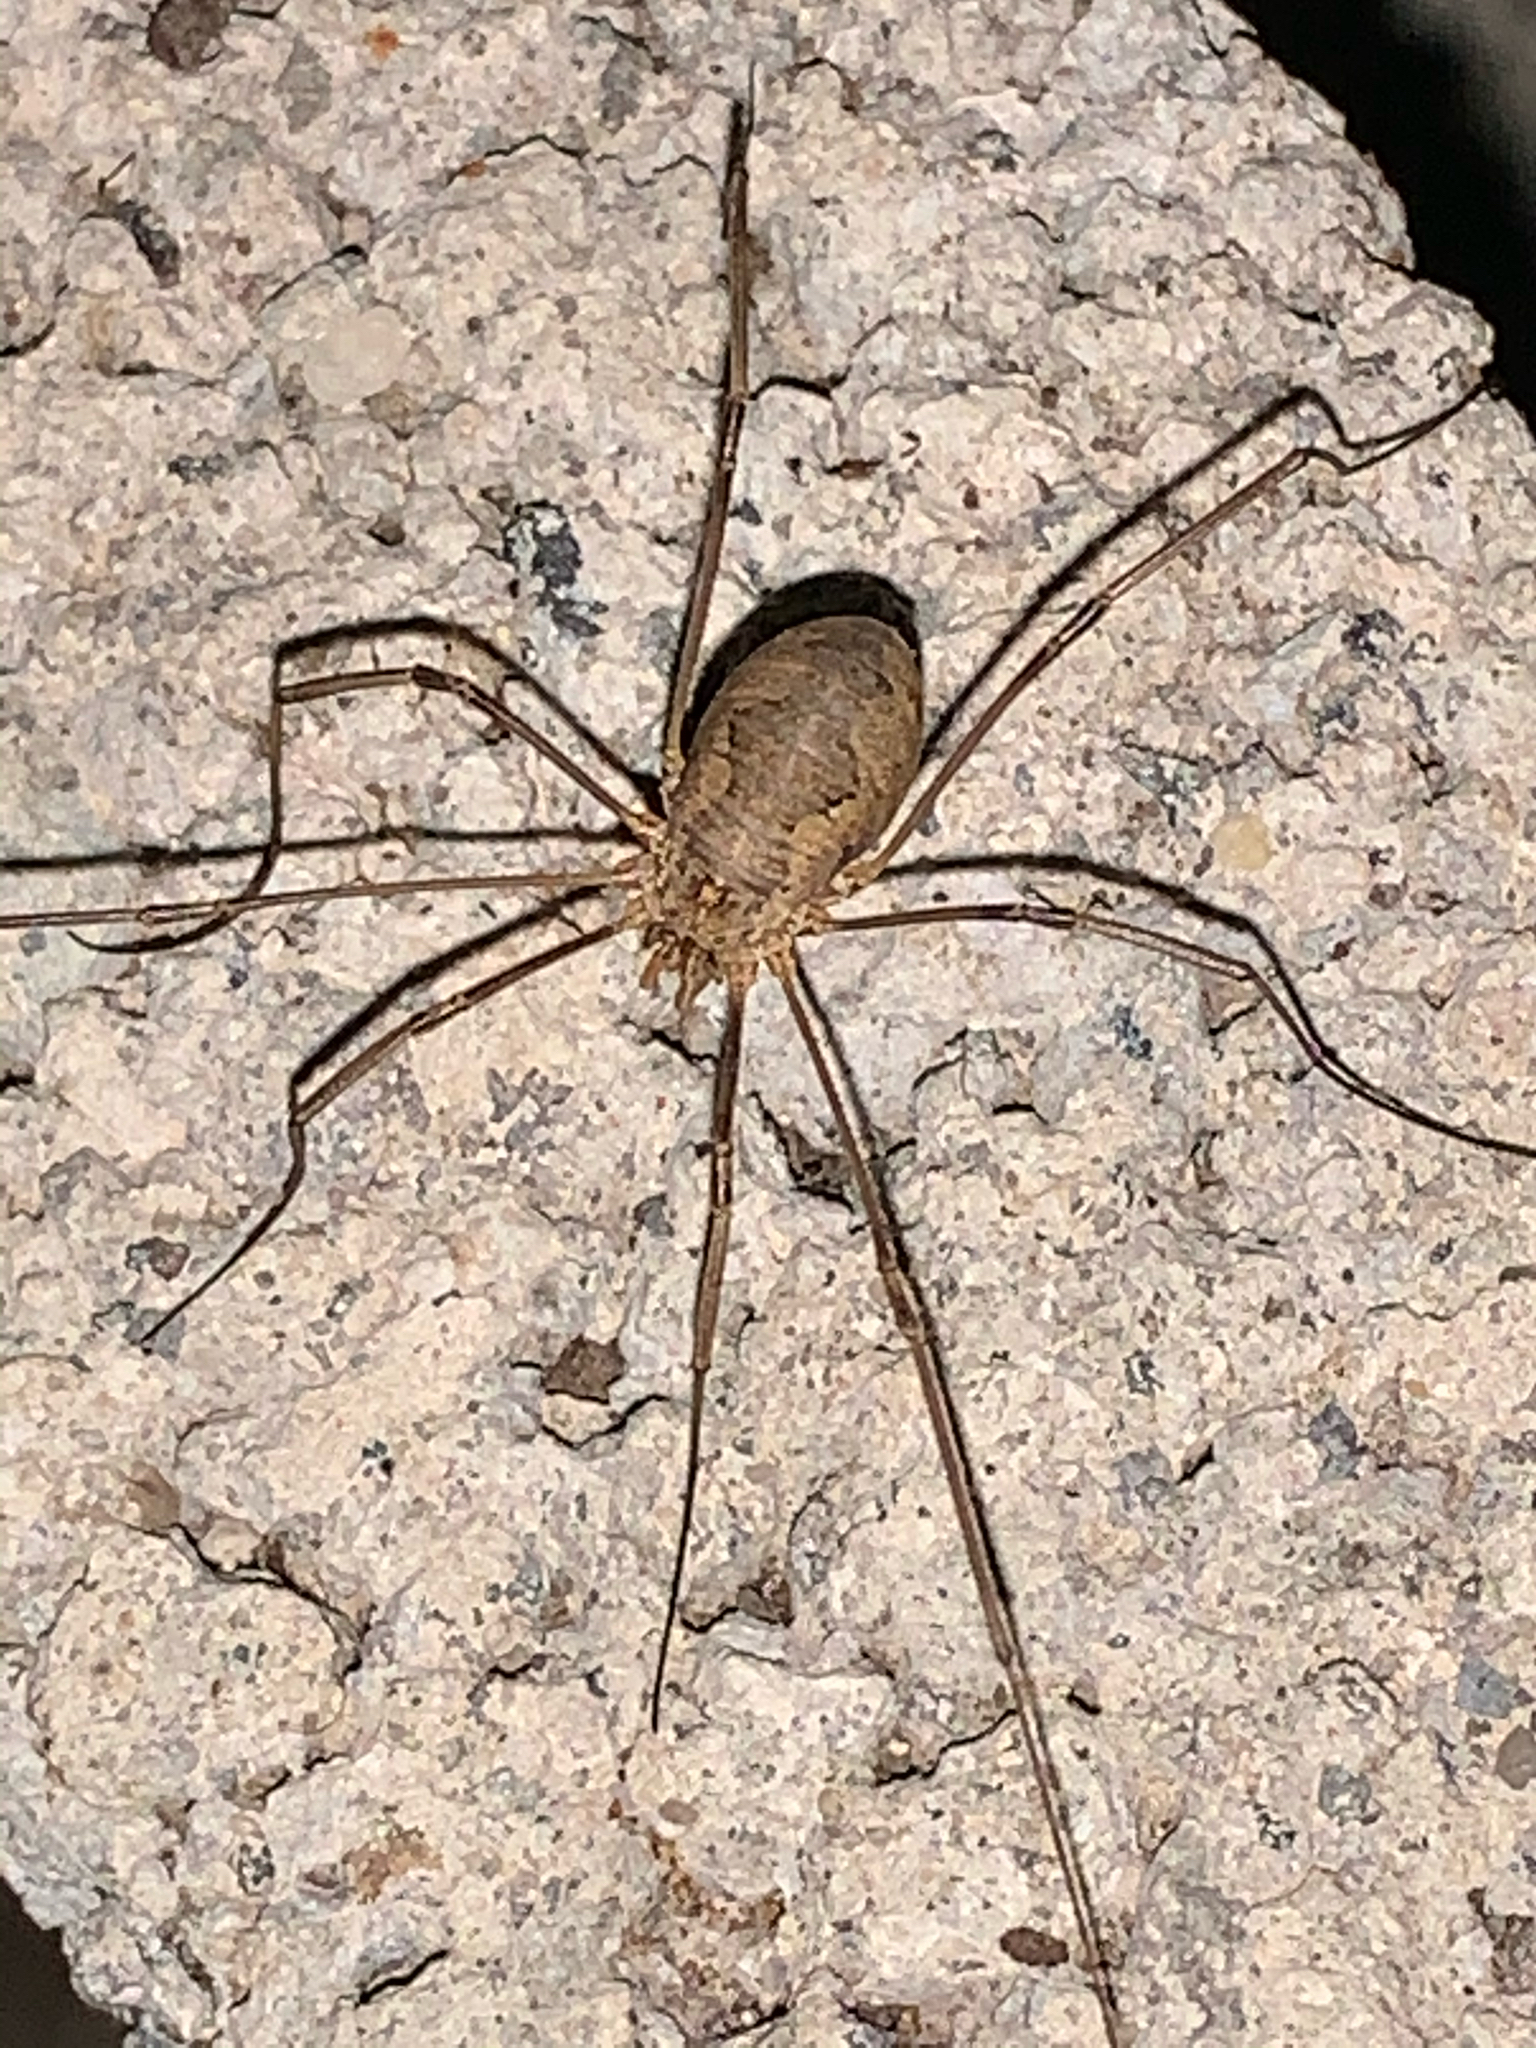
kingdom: Animalia
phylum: Arthropoda
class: Arachnida
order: Opiliones
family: Phalangiidae
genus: Phalangium
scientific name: Phalangium opilio
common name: Daddy longleg
